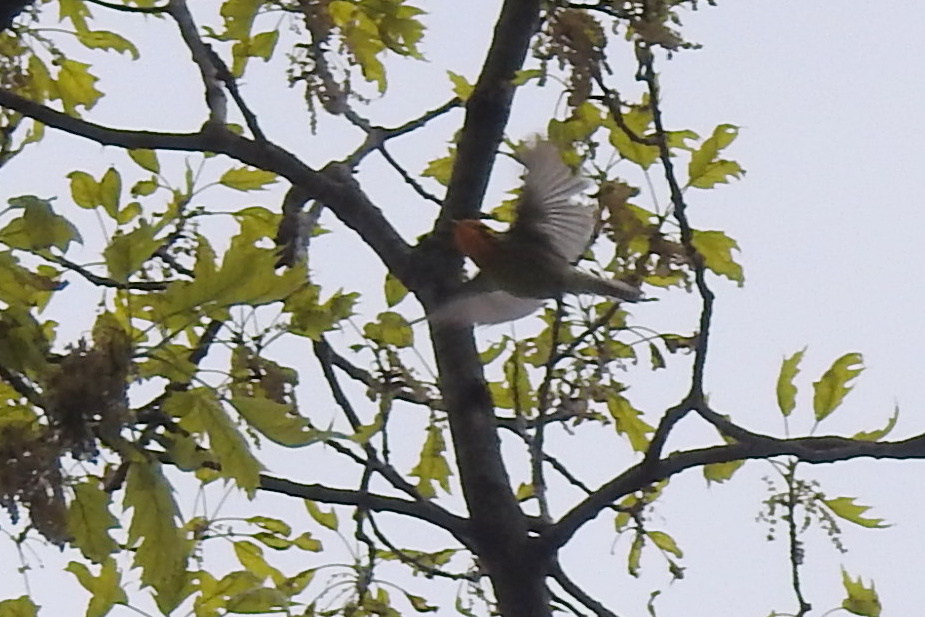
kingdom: Animalia
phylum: Chordata
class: Aves
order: Passeriformes
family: Parulidae
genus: Setophaga
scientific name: Setophaga fusca
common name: Blackburnian warbler
